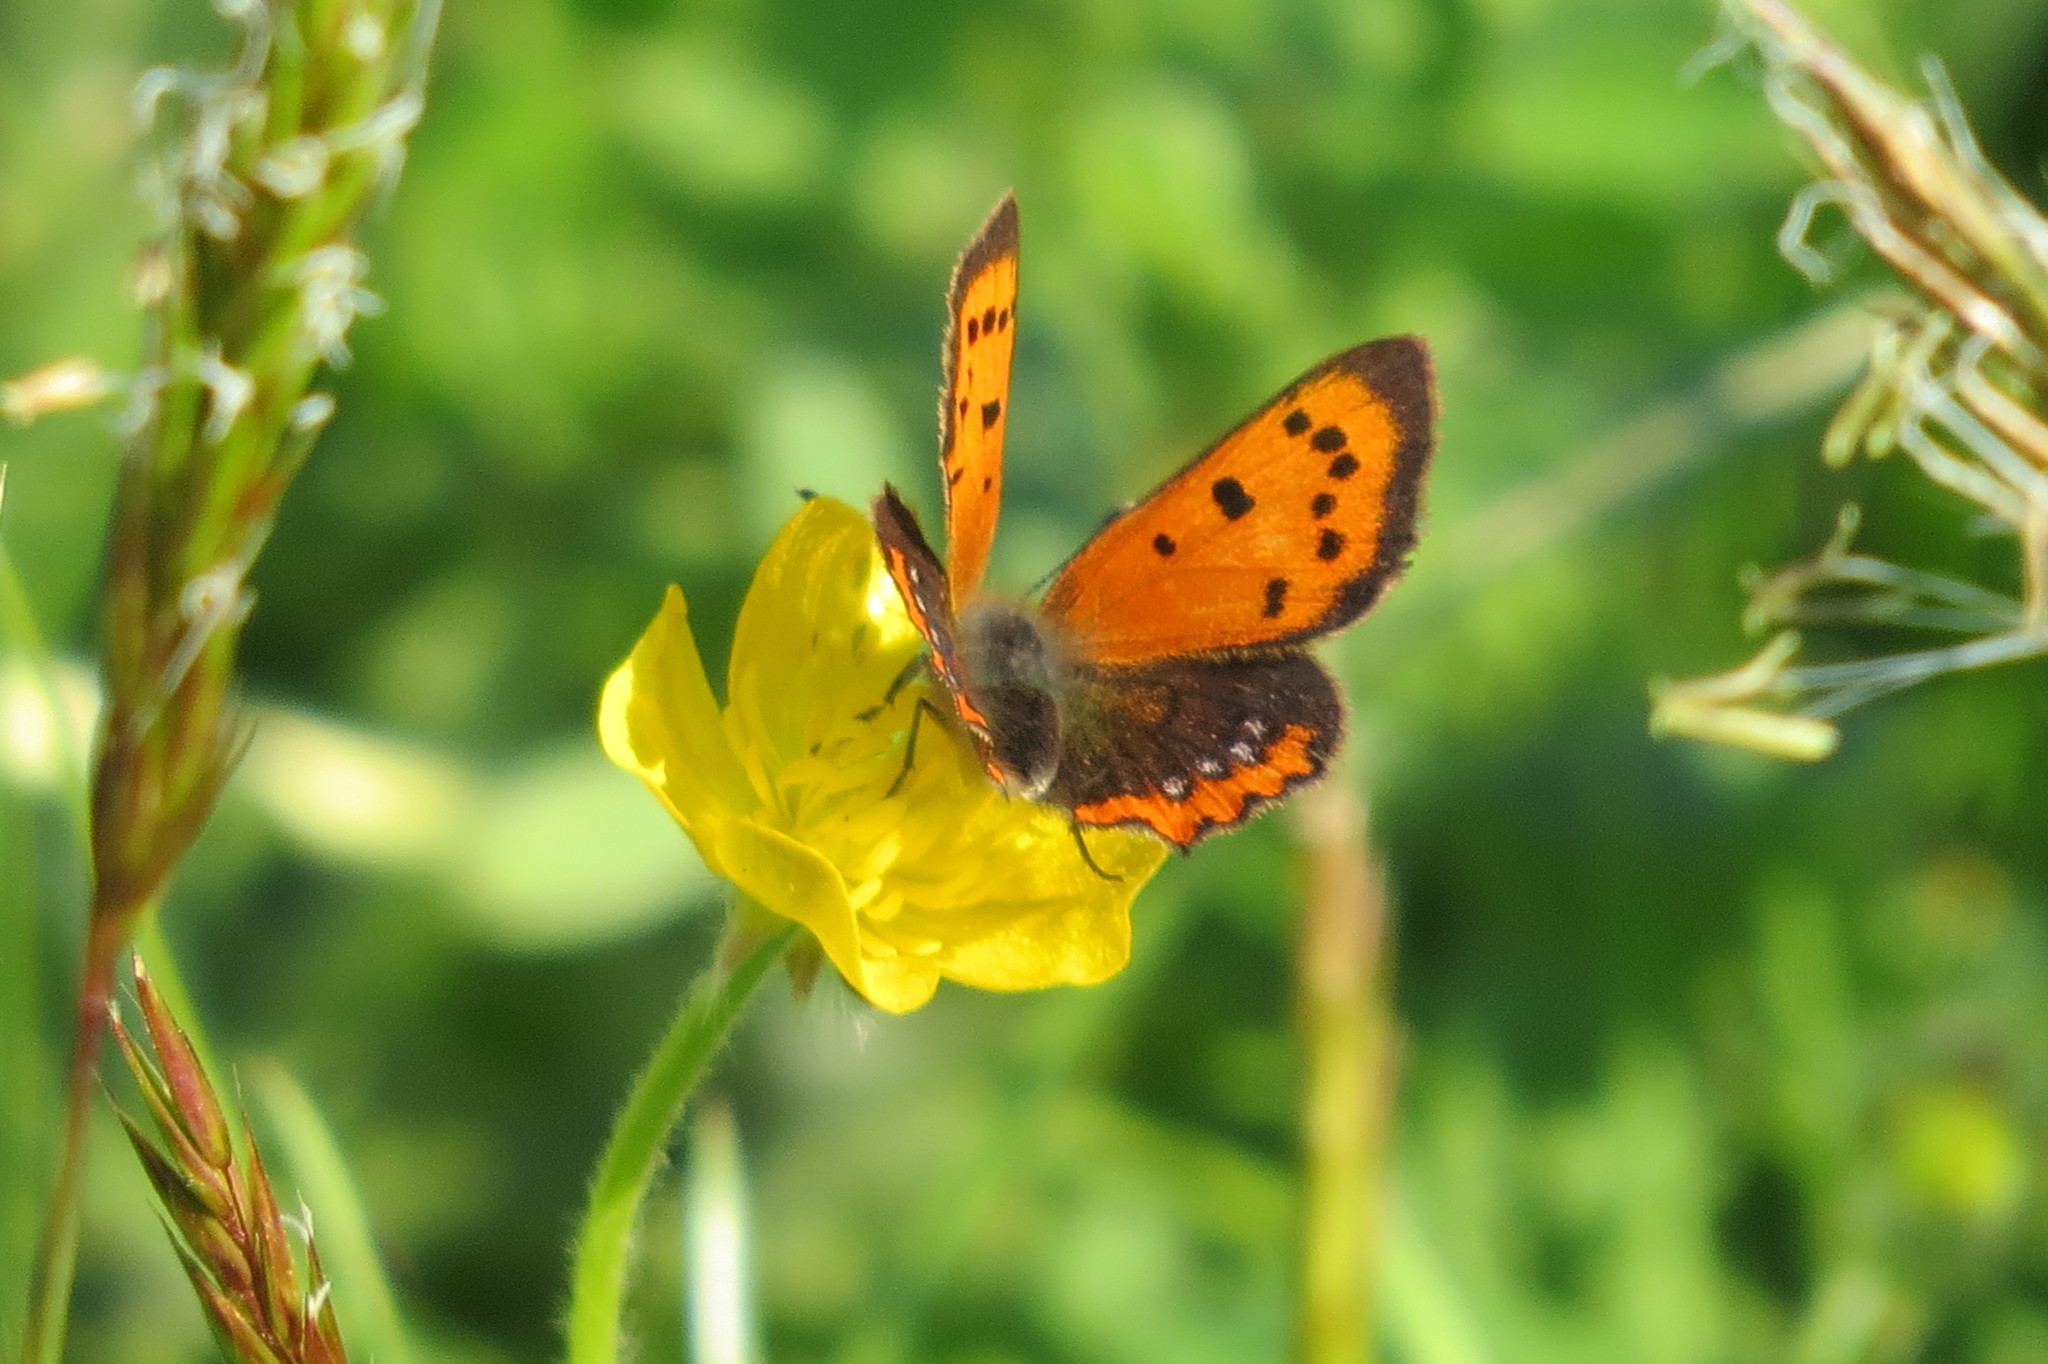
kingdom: Animalia
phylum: Arthropoda
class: Insecta
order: Lepidoptera
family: Lycaenidae
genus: Lycaena
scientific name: Lycaena phlaeas
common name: Small copper
